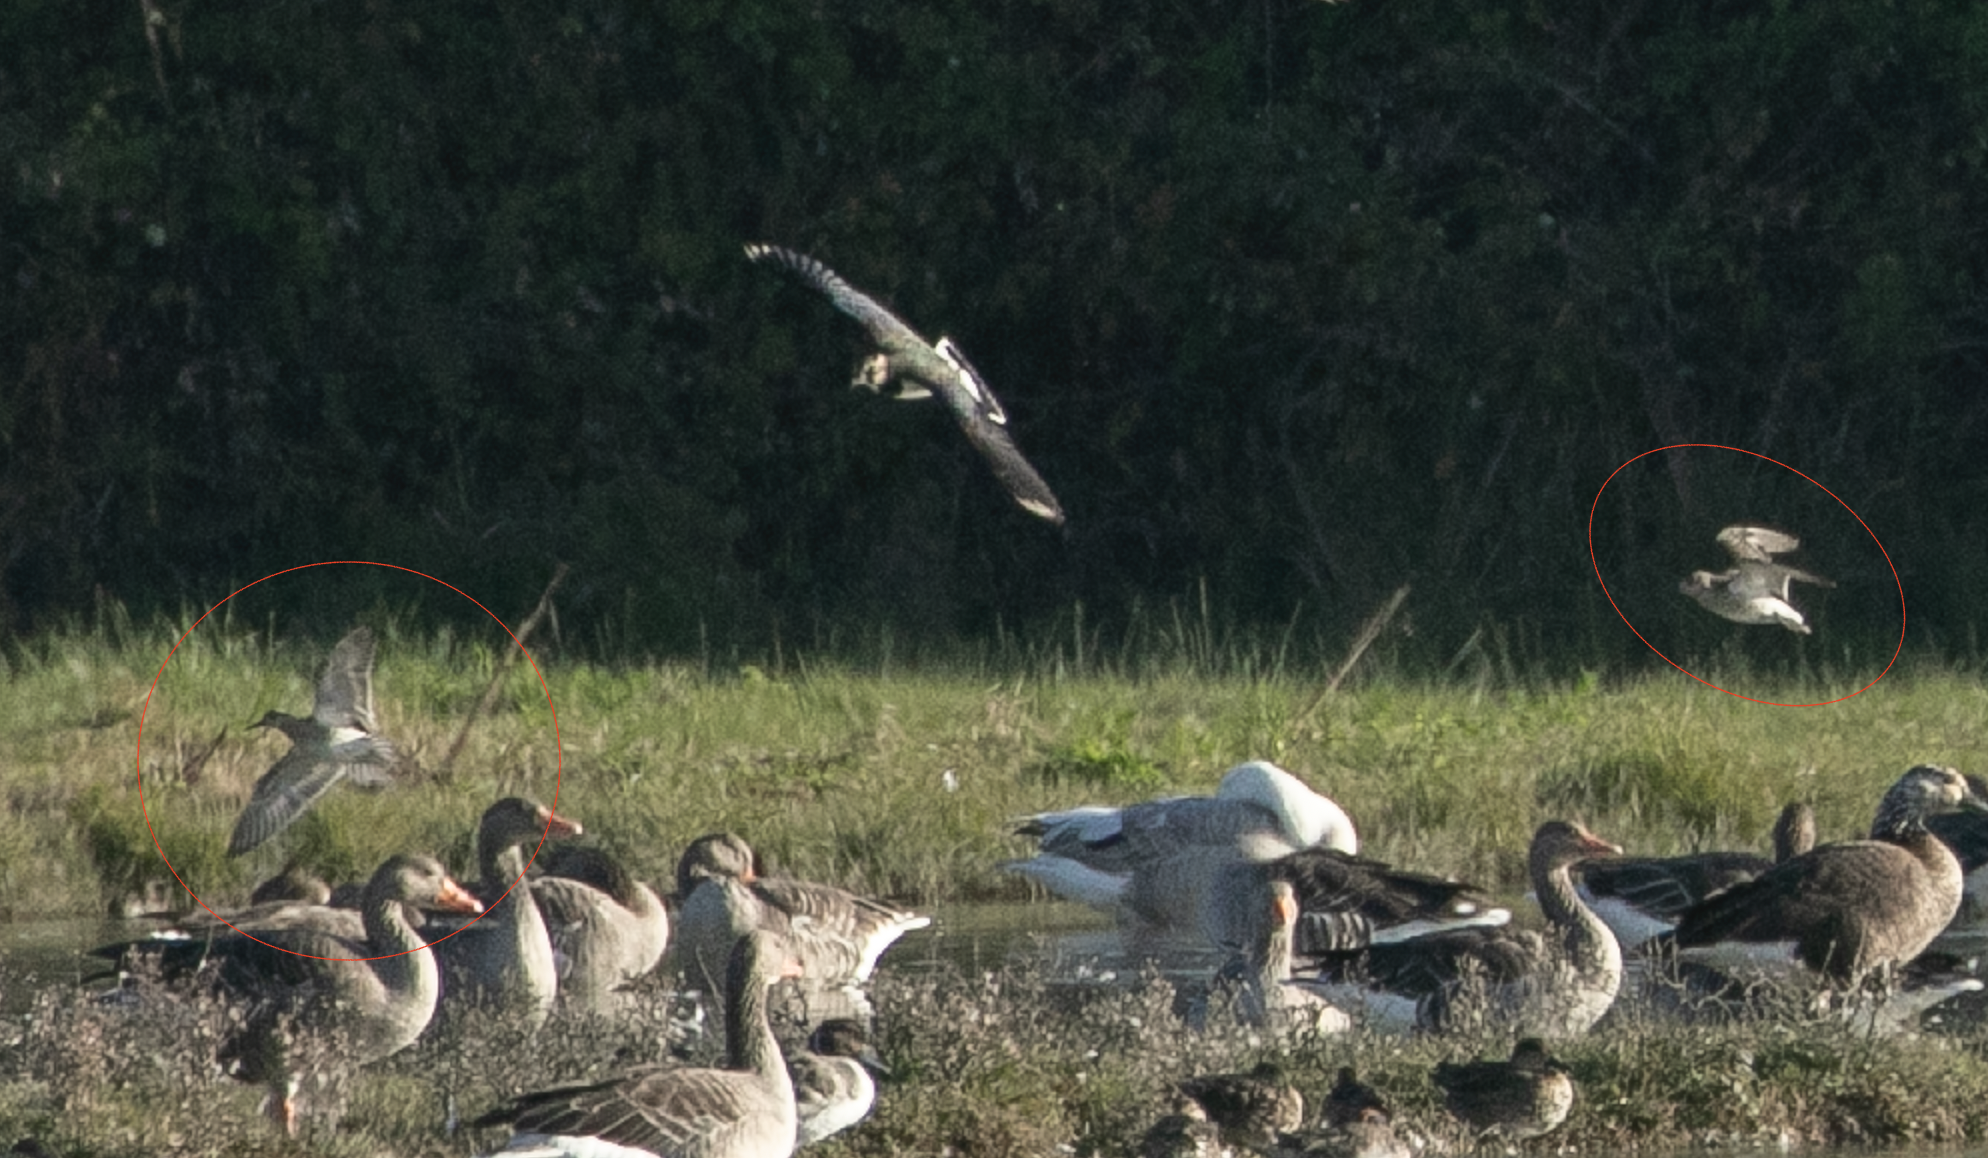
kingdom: Animalia
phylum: Chordata
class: Aves
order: Charadriiformes
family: Scolopacidae
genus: Calidris
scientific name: Calidris pugnax
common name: Ruff
